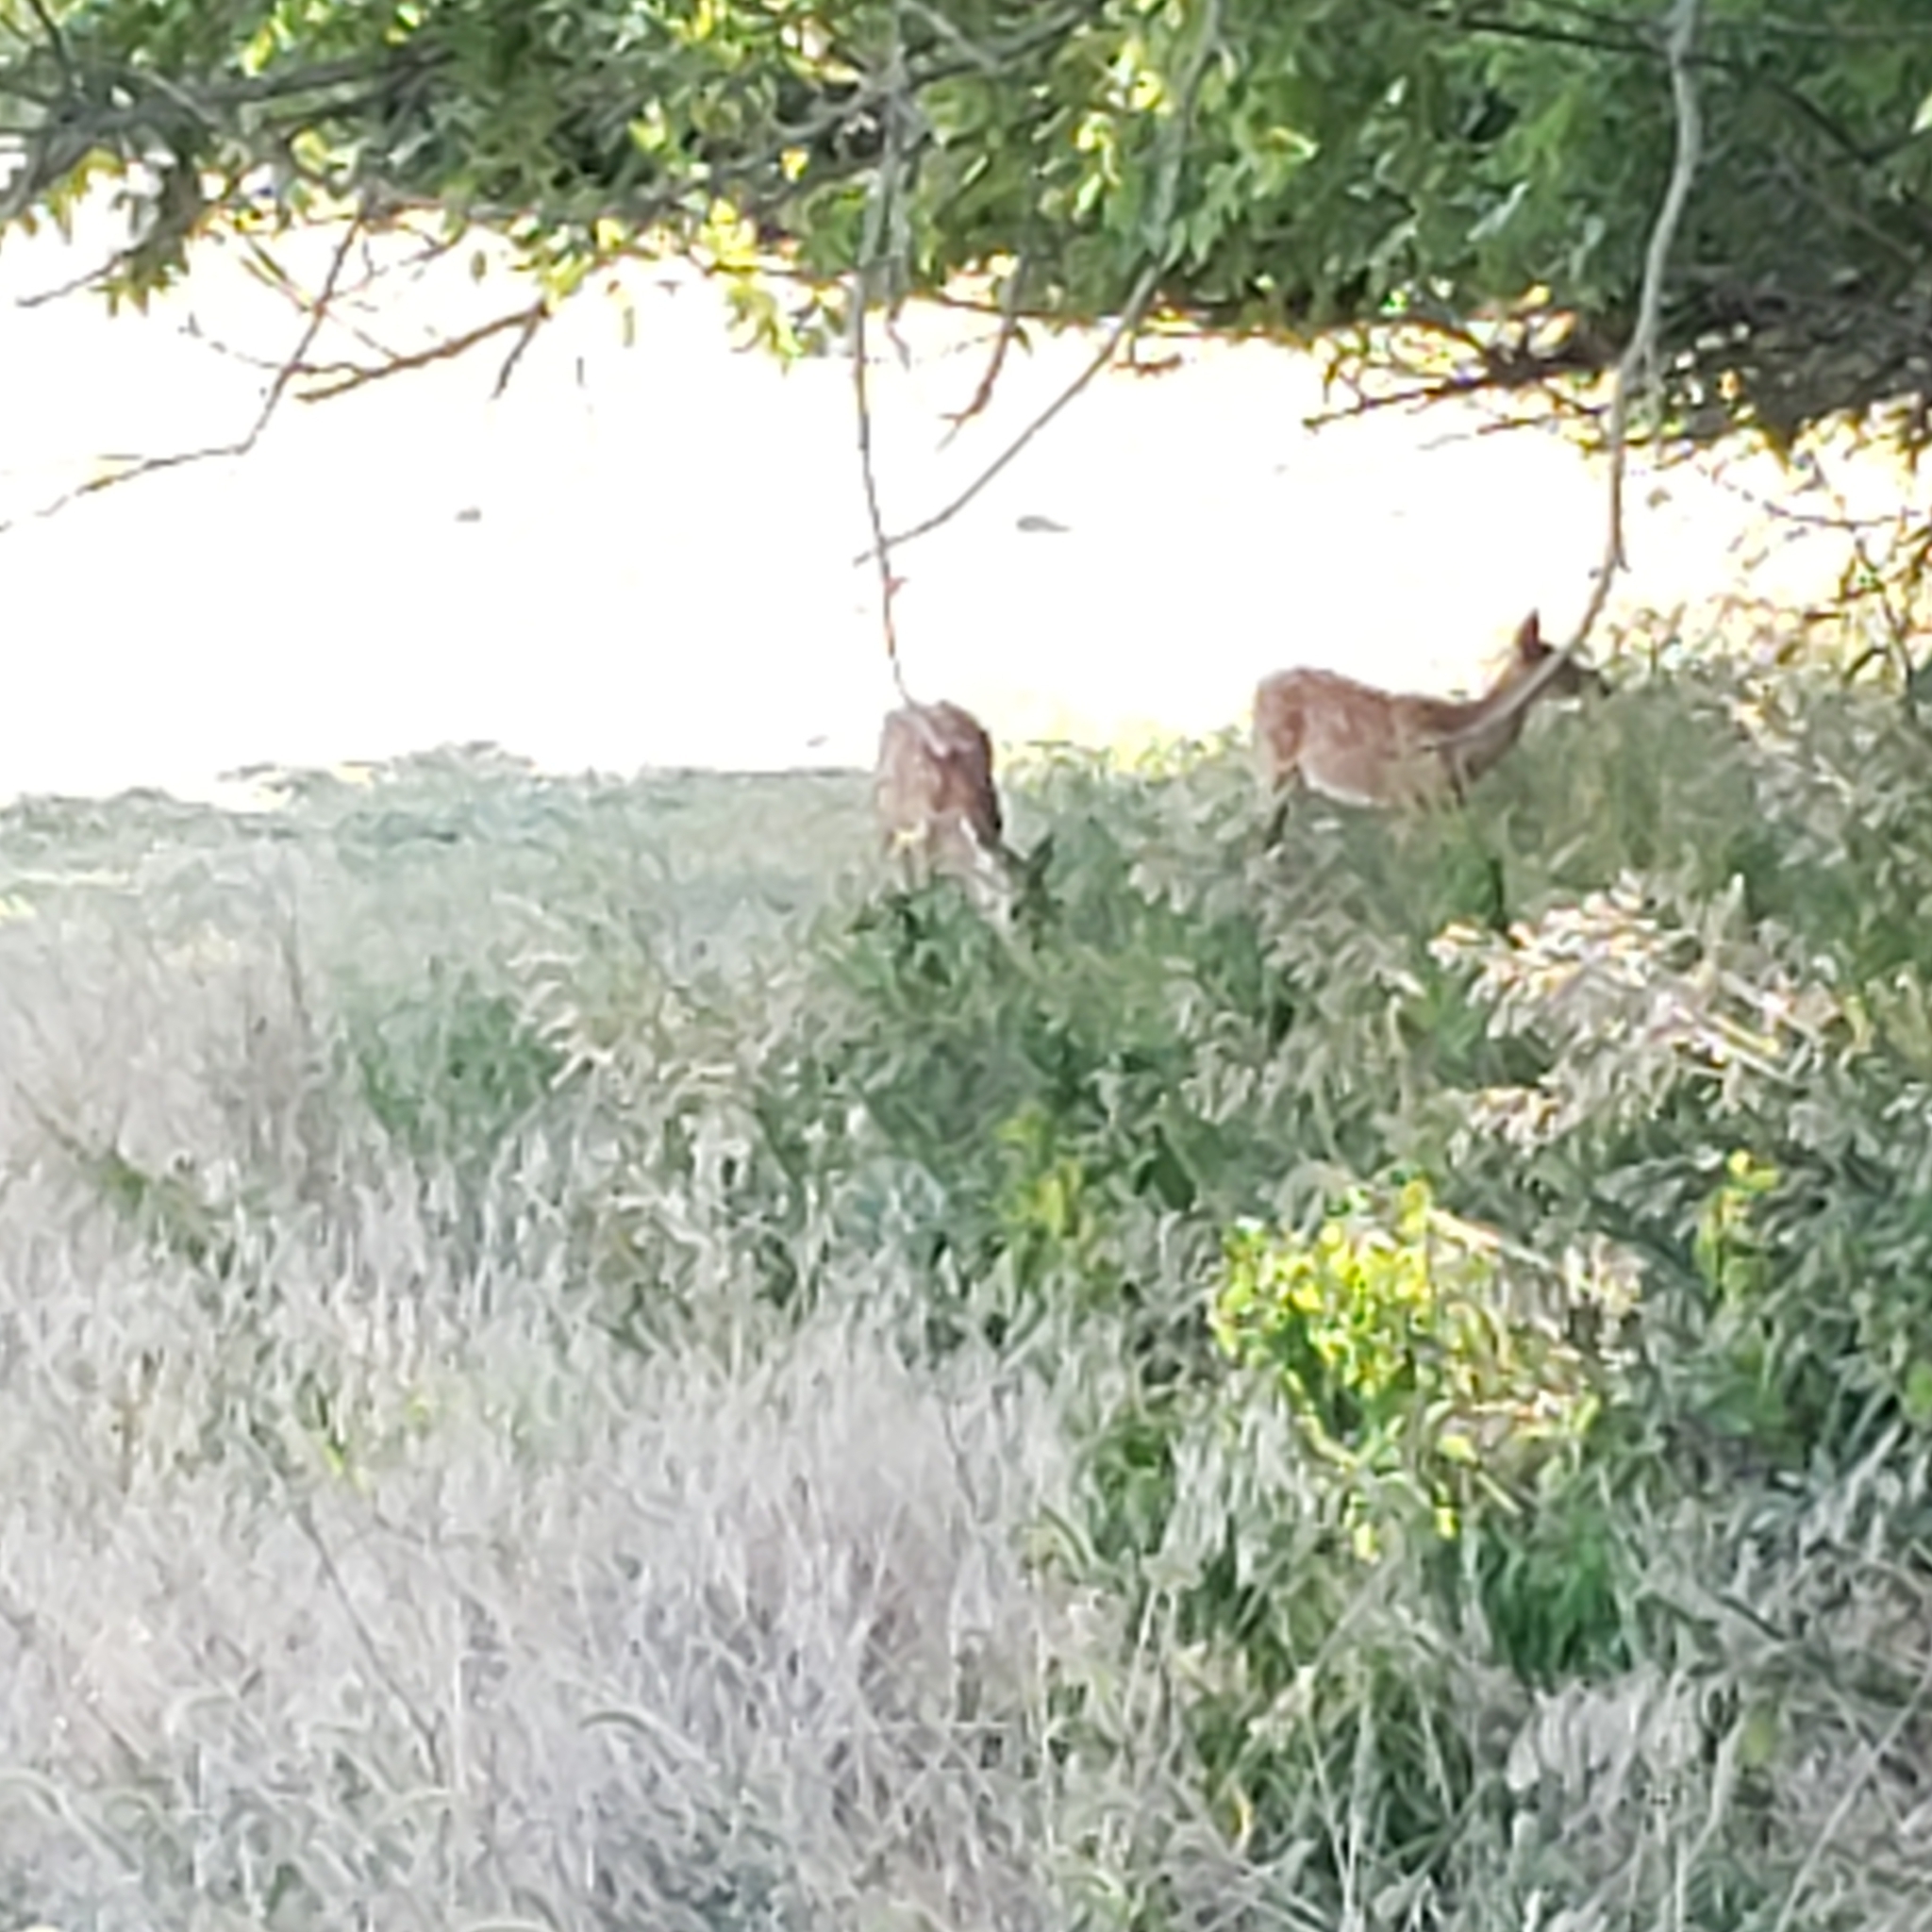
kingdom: Animalia
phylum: Chordata
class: Mammalia
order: Artiodactyla
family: Cervidae
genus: Odocoileus
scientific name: Odocoileus virginianus
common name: White-tailed deer
